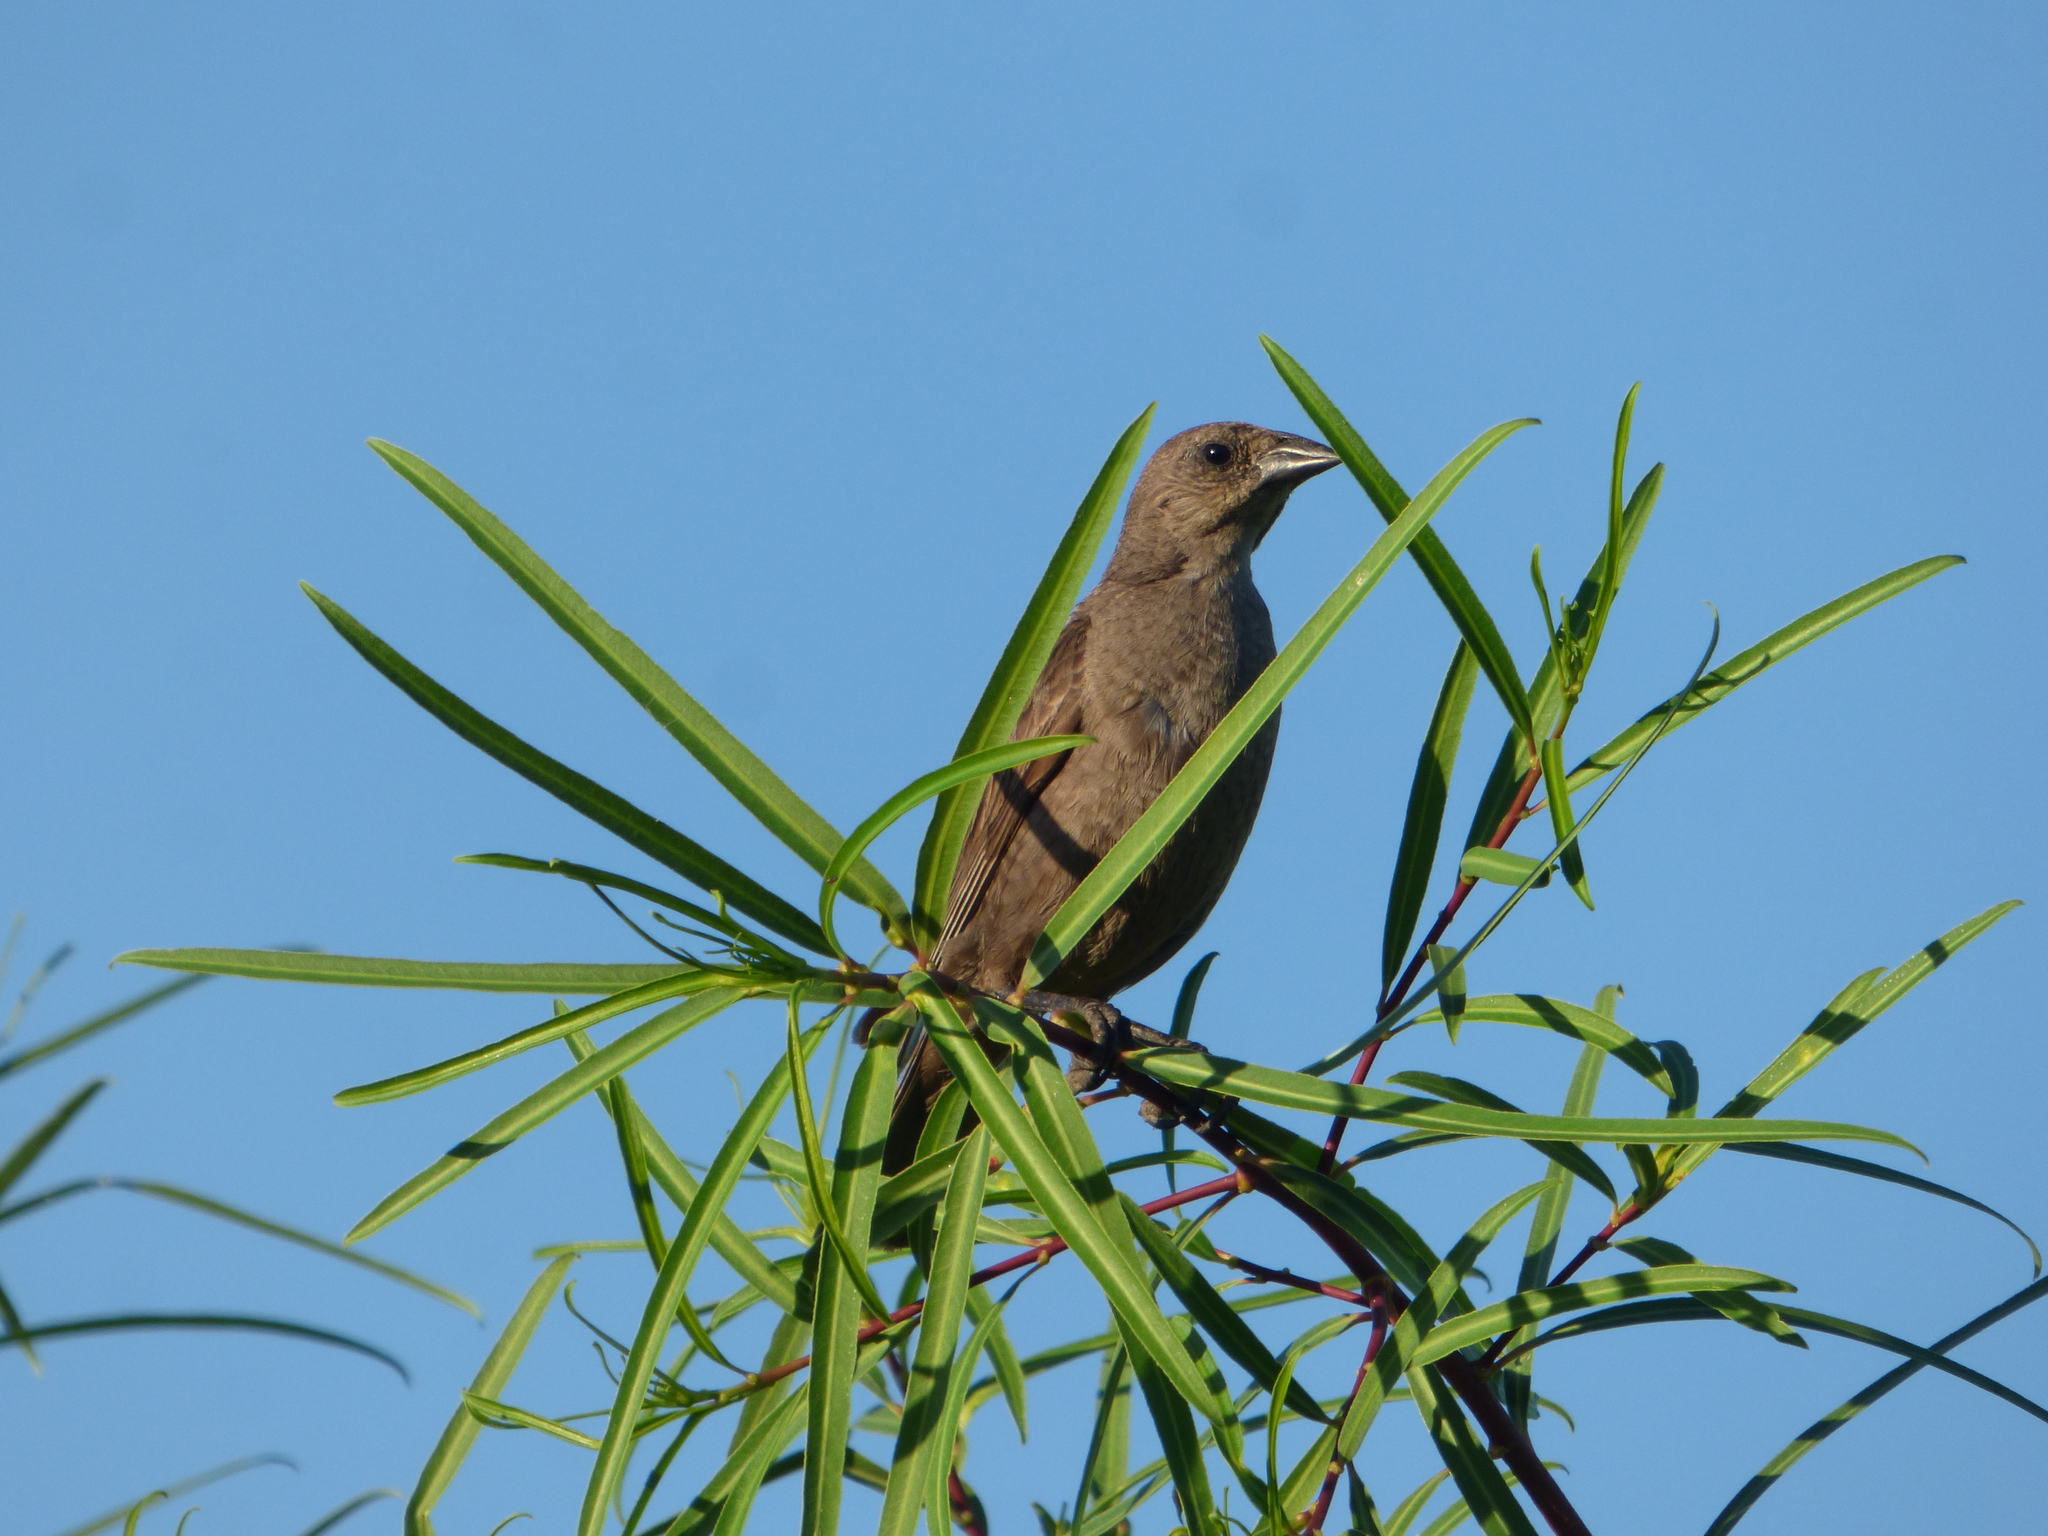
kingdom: Animalia
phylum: Chordata
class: Aves
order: Passeriformes
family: Icteridae
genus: Molothrus
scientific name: Molothrus bonariensis
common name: Shiny cowbird
